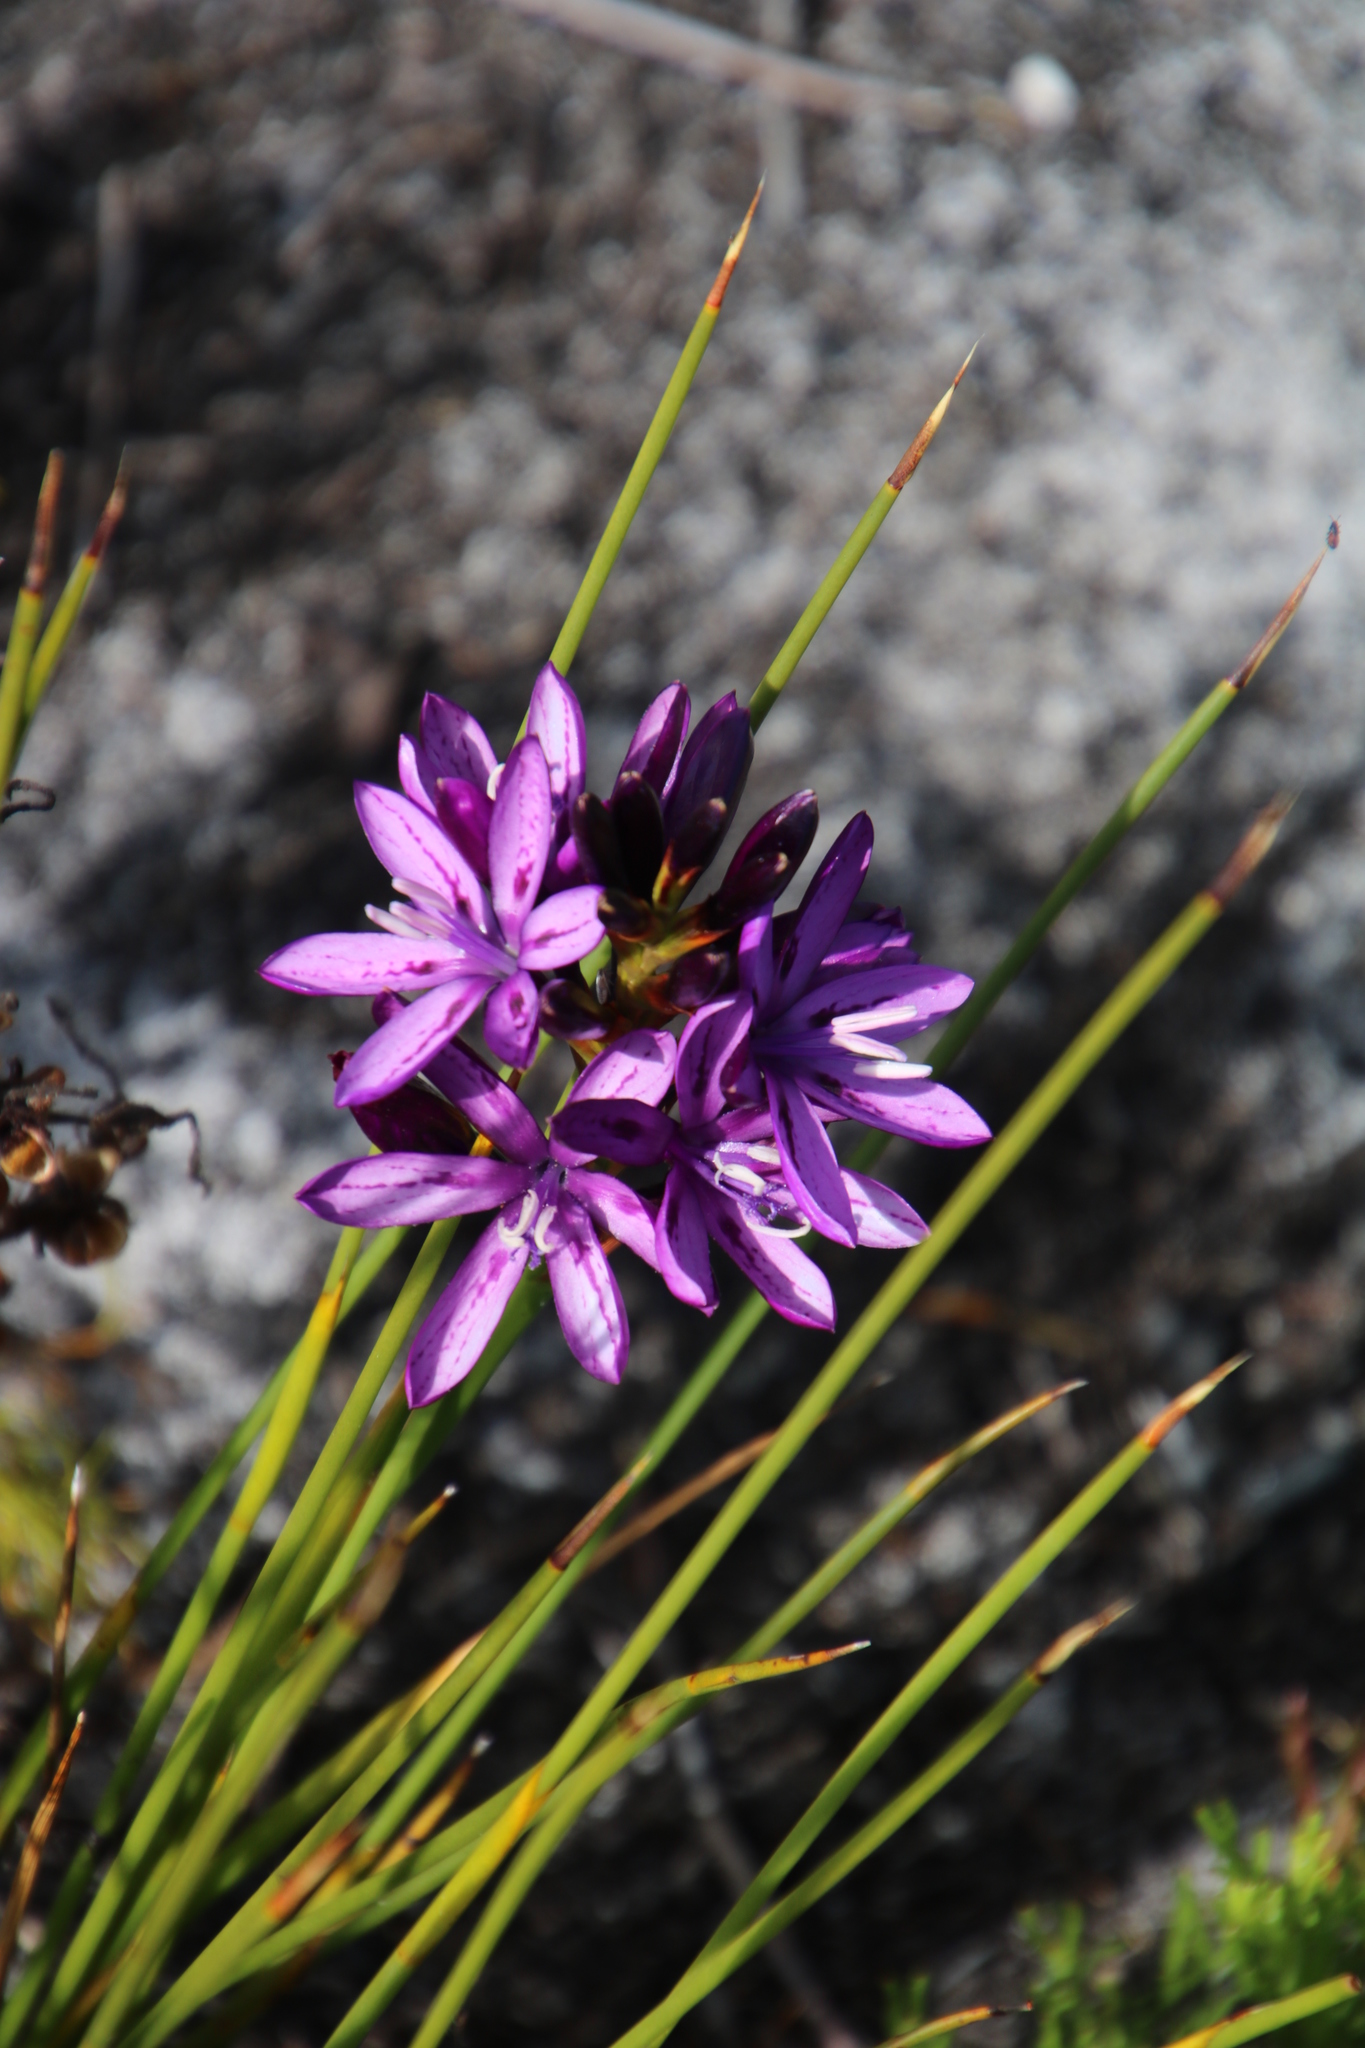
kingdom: Plantae
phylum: Tracheophyta
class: Liliopsida
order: Asparagales
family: Iridaceae
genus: Thereianthus
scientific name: Thereianthus bracteolatus
